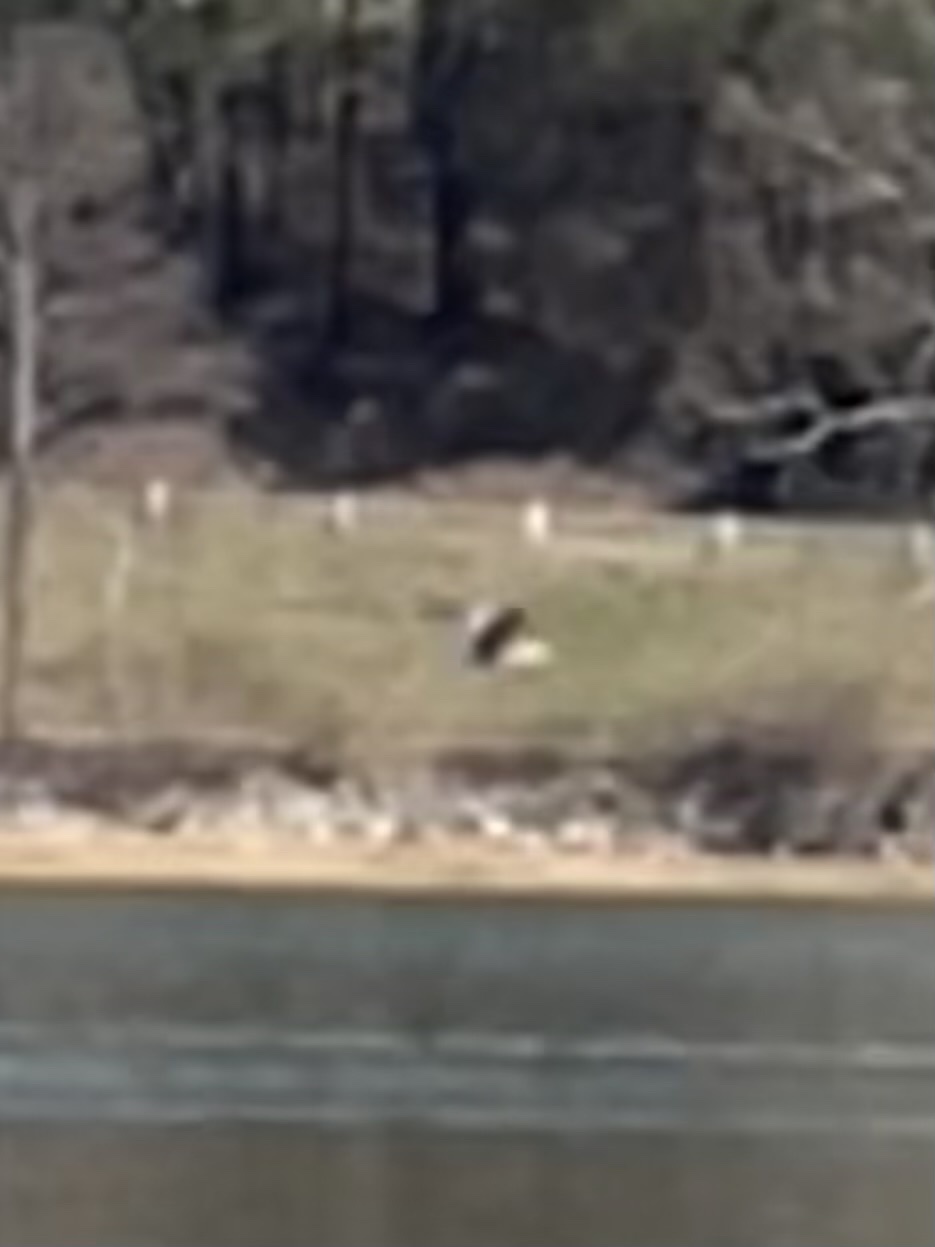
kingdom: Animalia
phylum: Chordata
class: Aves
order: Accipitriformes
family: Accipitridae
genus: Haliaeetus
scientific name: Haliaeetus leucocephalus
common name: Bald eagle
